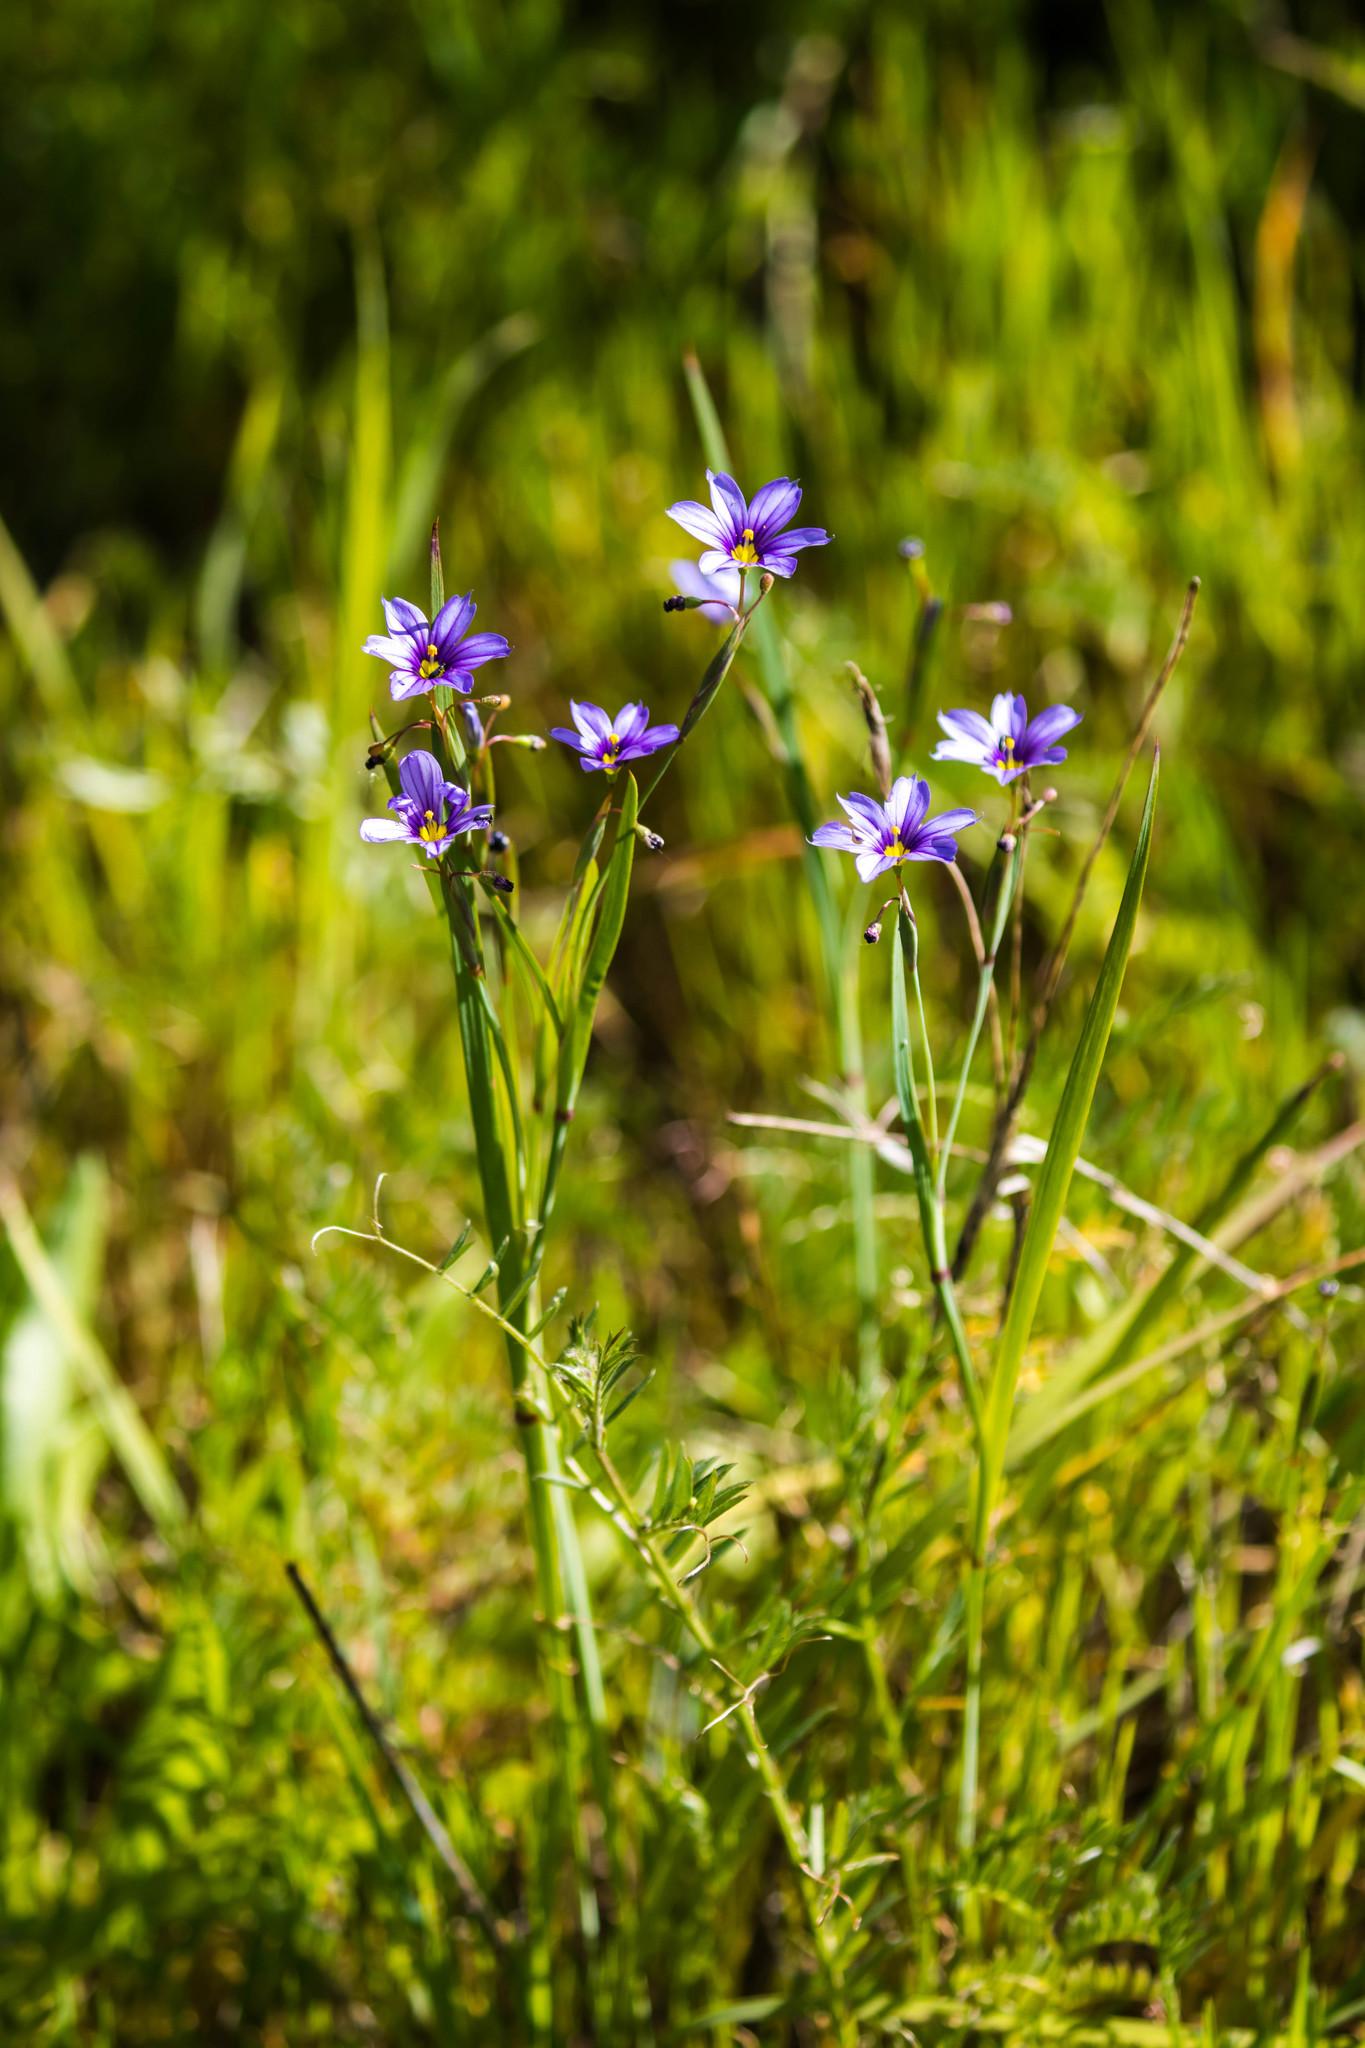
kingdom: Plantae
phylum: Tracheophyta
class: Liliopsida
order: Asparagales
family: Iridaceae
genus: Sisyrinchium
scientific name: Sisyrinchium bellum
